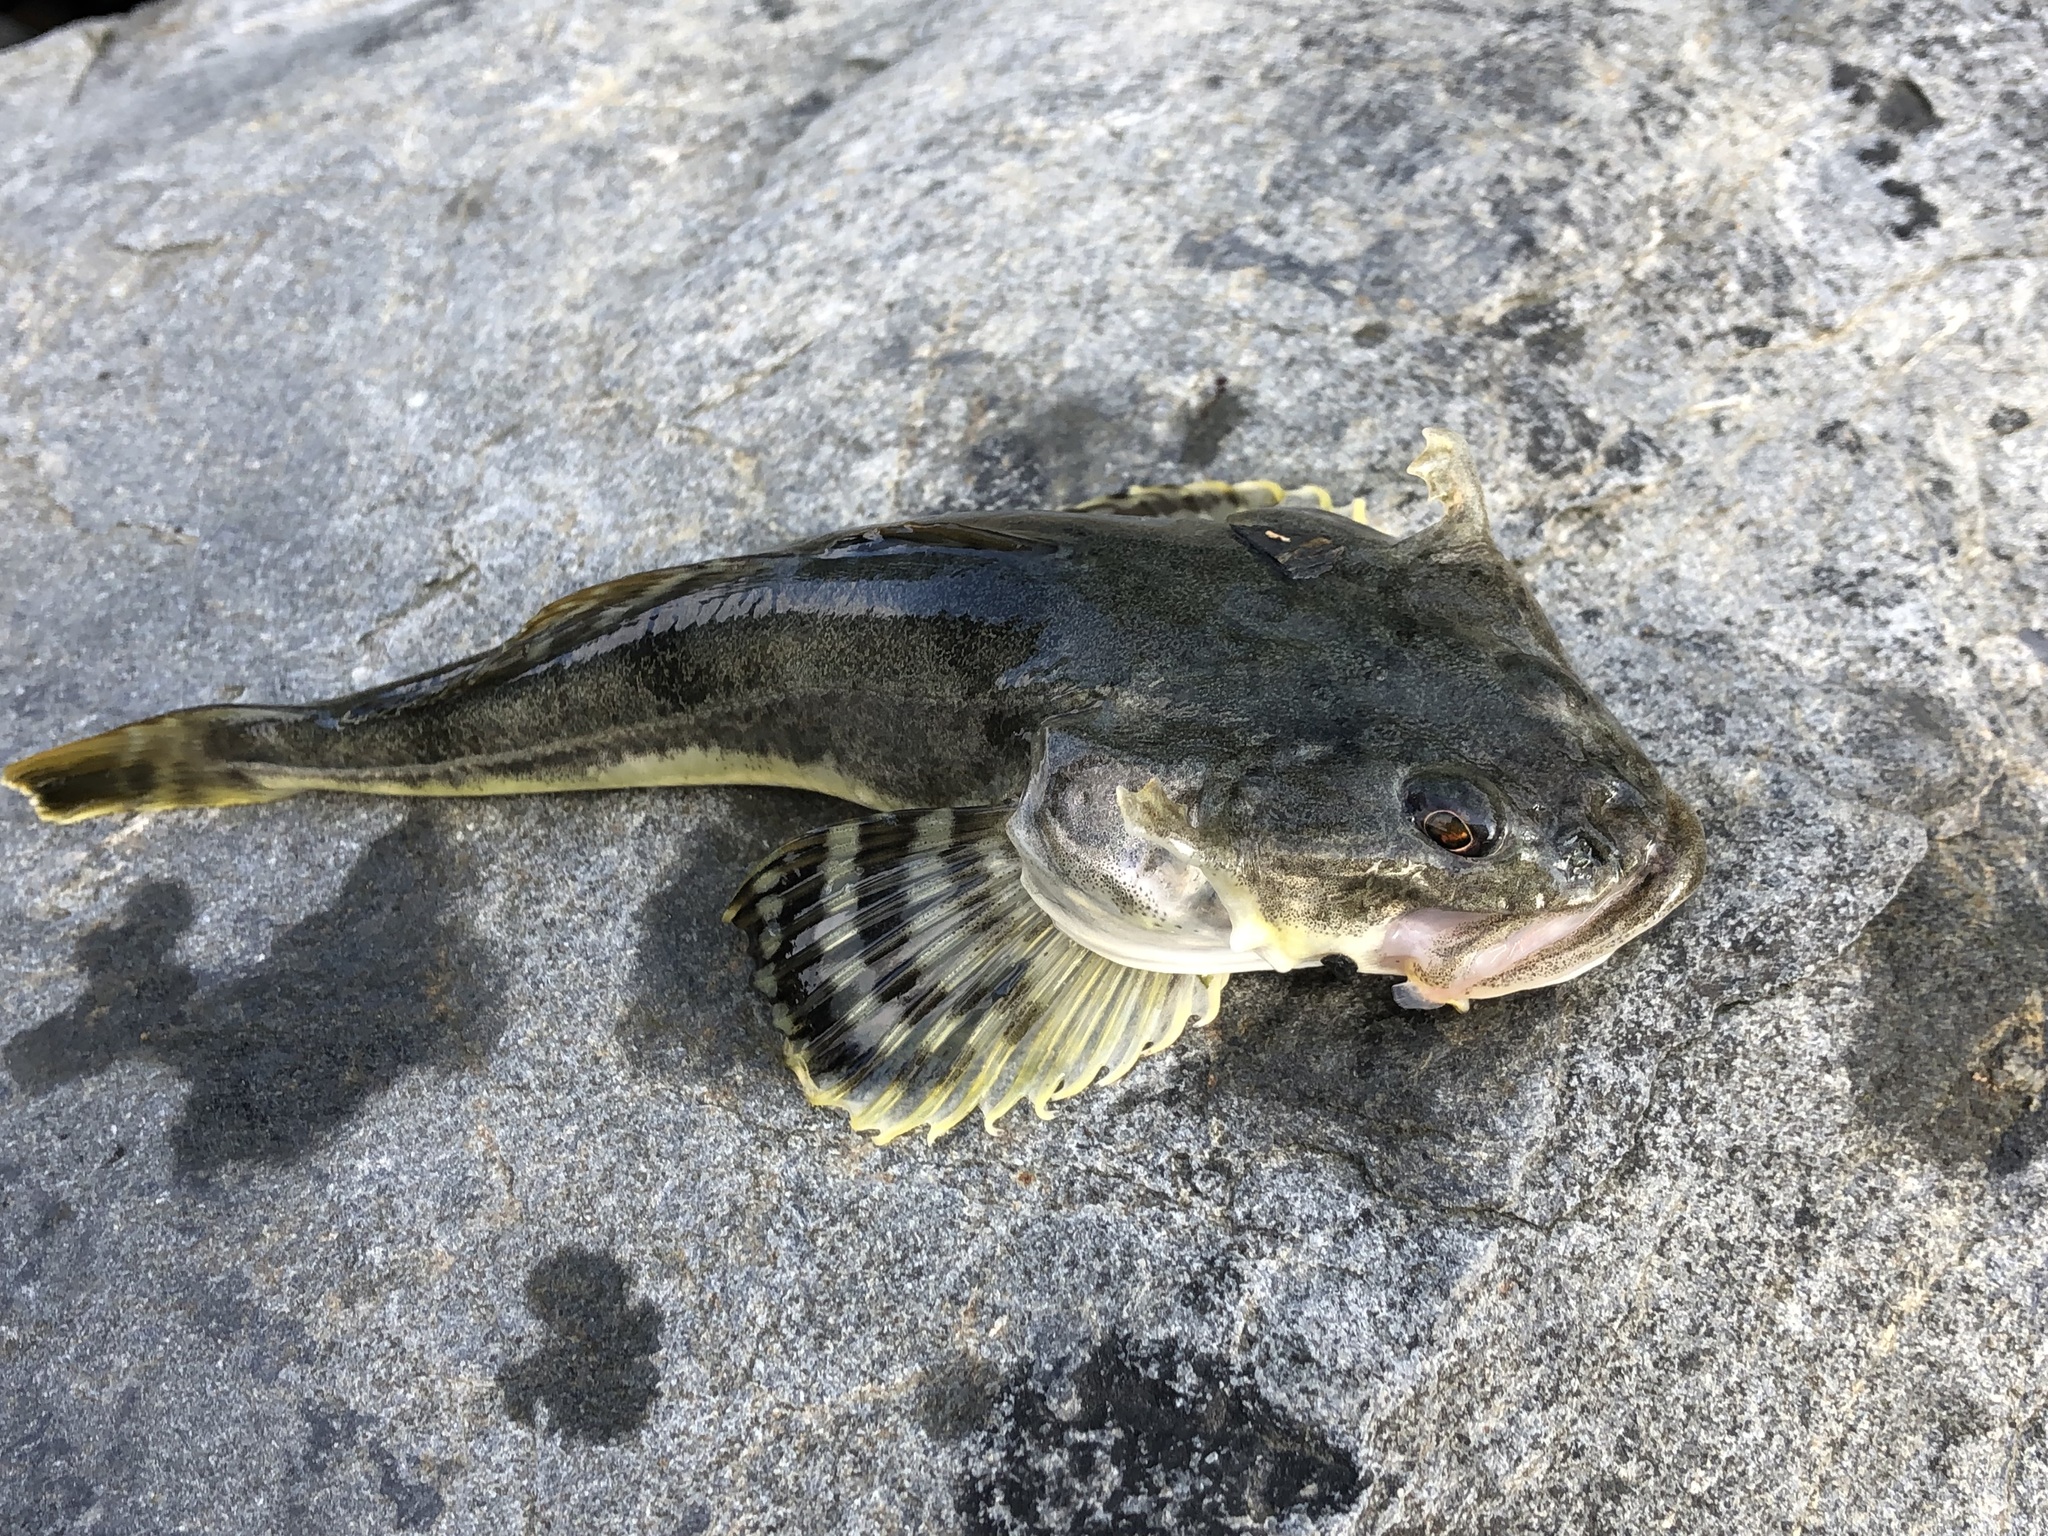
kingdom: Animalia
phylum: Chordata
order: Scorpaeniformes
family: Cottidae
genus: Leptocottus
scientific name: Leptocottus armatus
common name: Pacific staghorn sculpin
